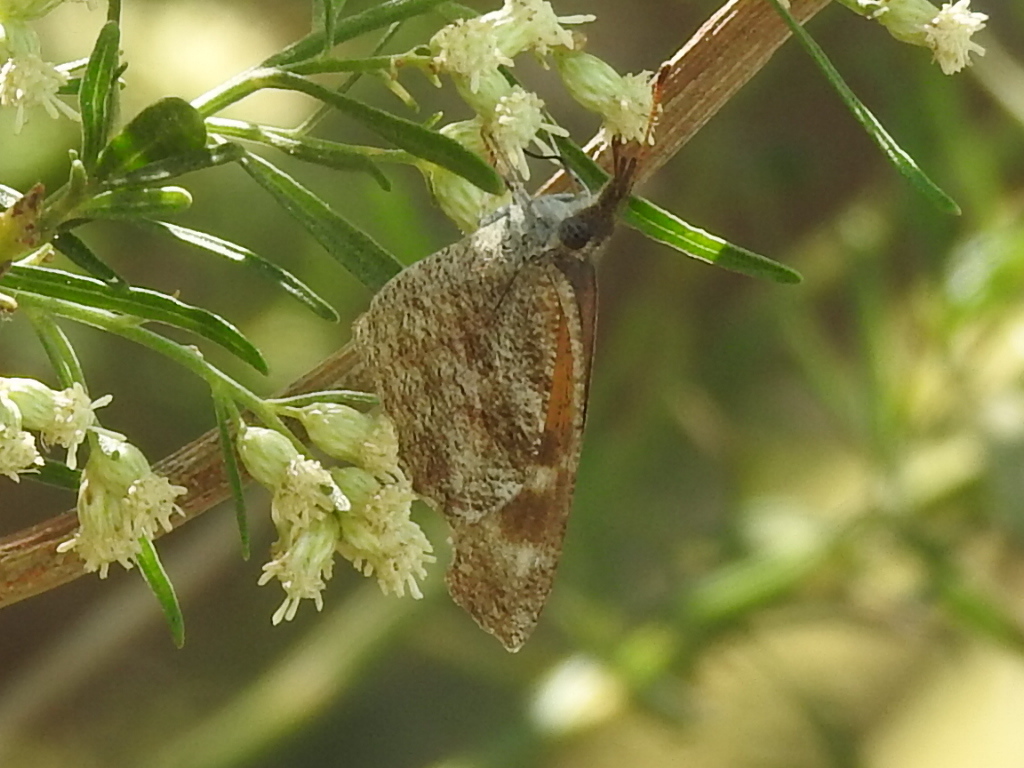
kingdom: Animalia
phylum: Arthropoda
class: Insecta
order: Lepidoptera
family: Nymphalidae
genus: Libytheana
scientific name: Libytheana carinenta
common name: American snout
